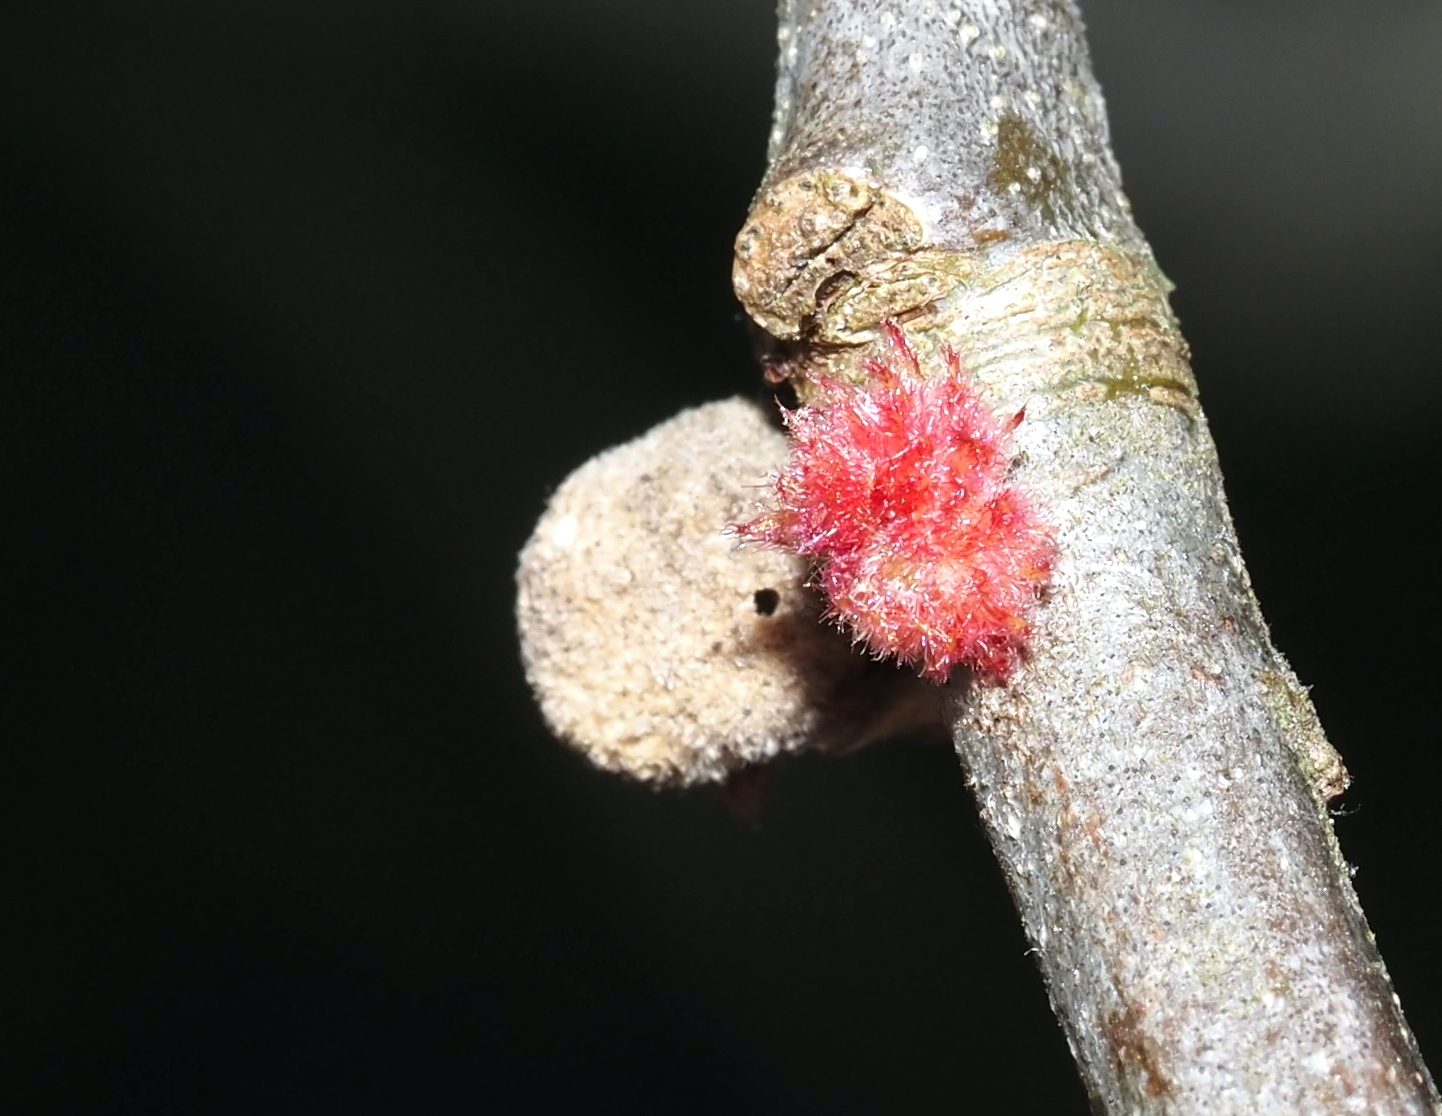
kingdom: Animalia
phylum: Arthropoda
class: Insecta
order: Hymenoptera
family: Cynipidae
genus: Dryocosmus
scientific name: Dryocosmus
